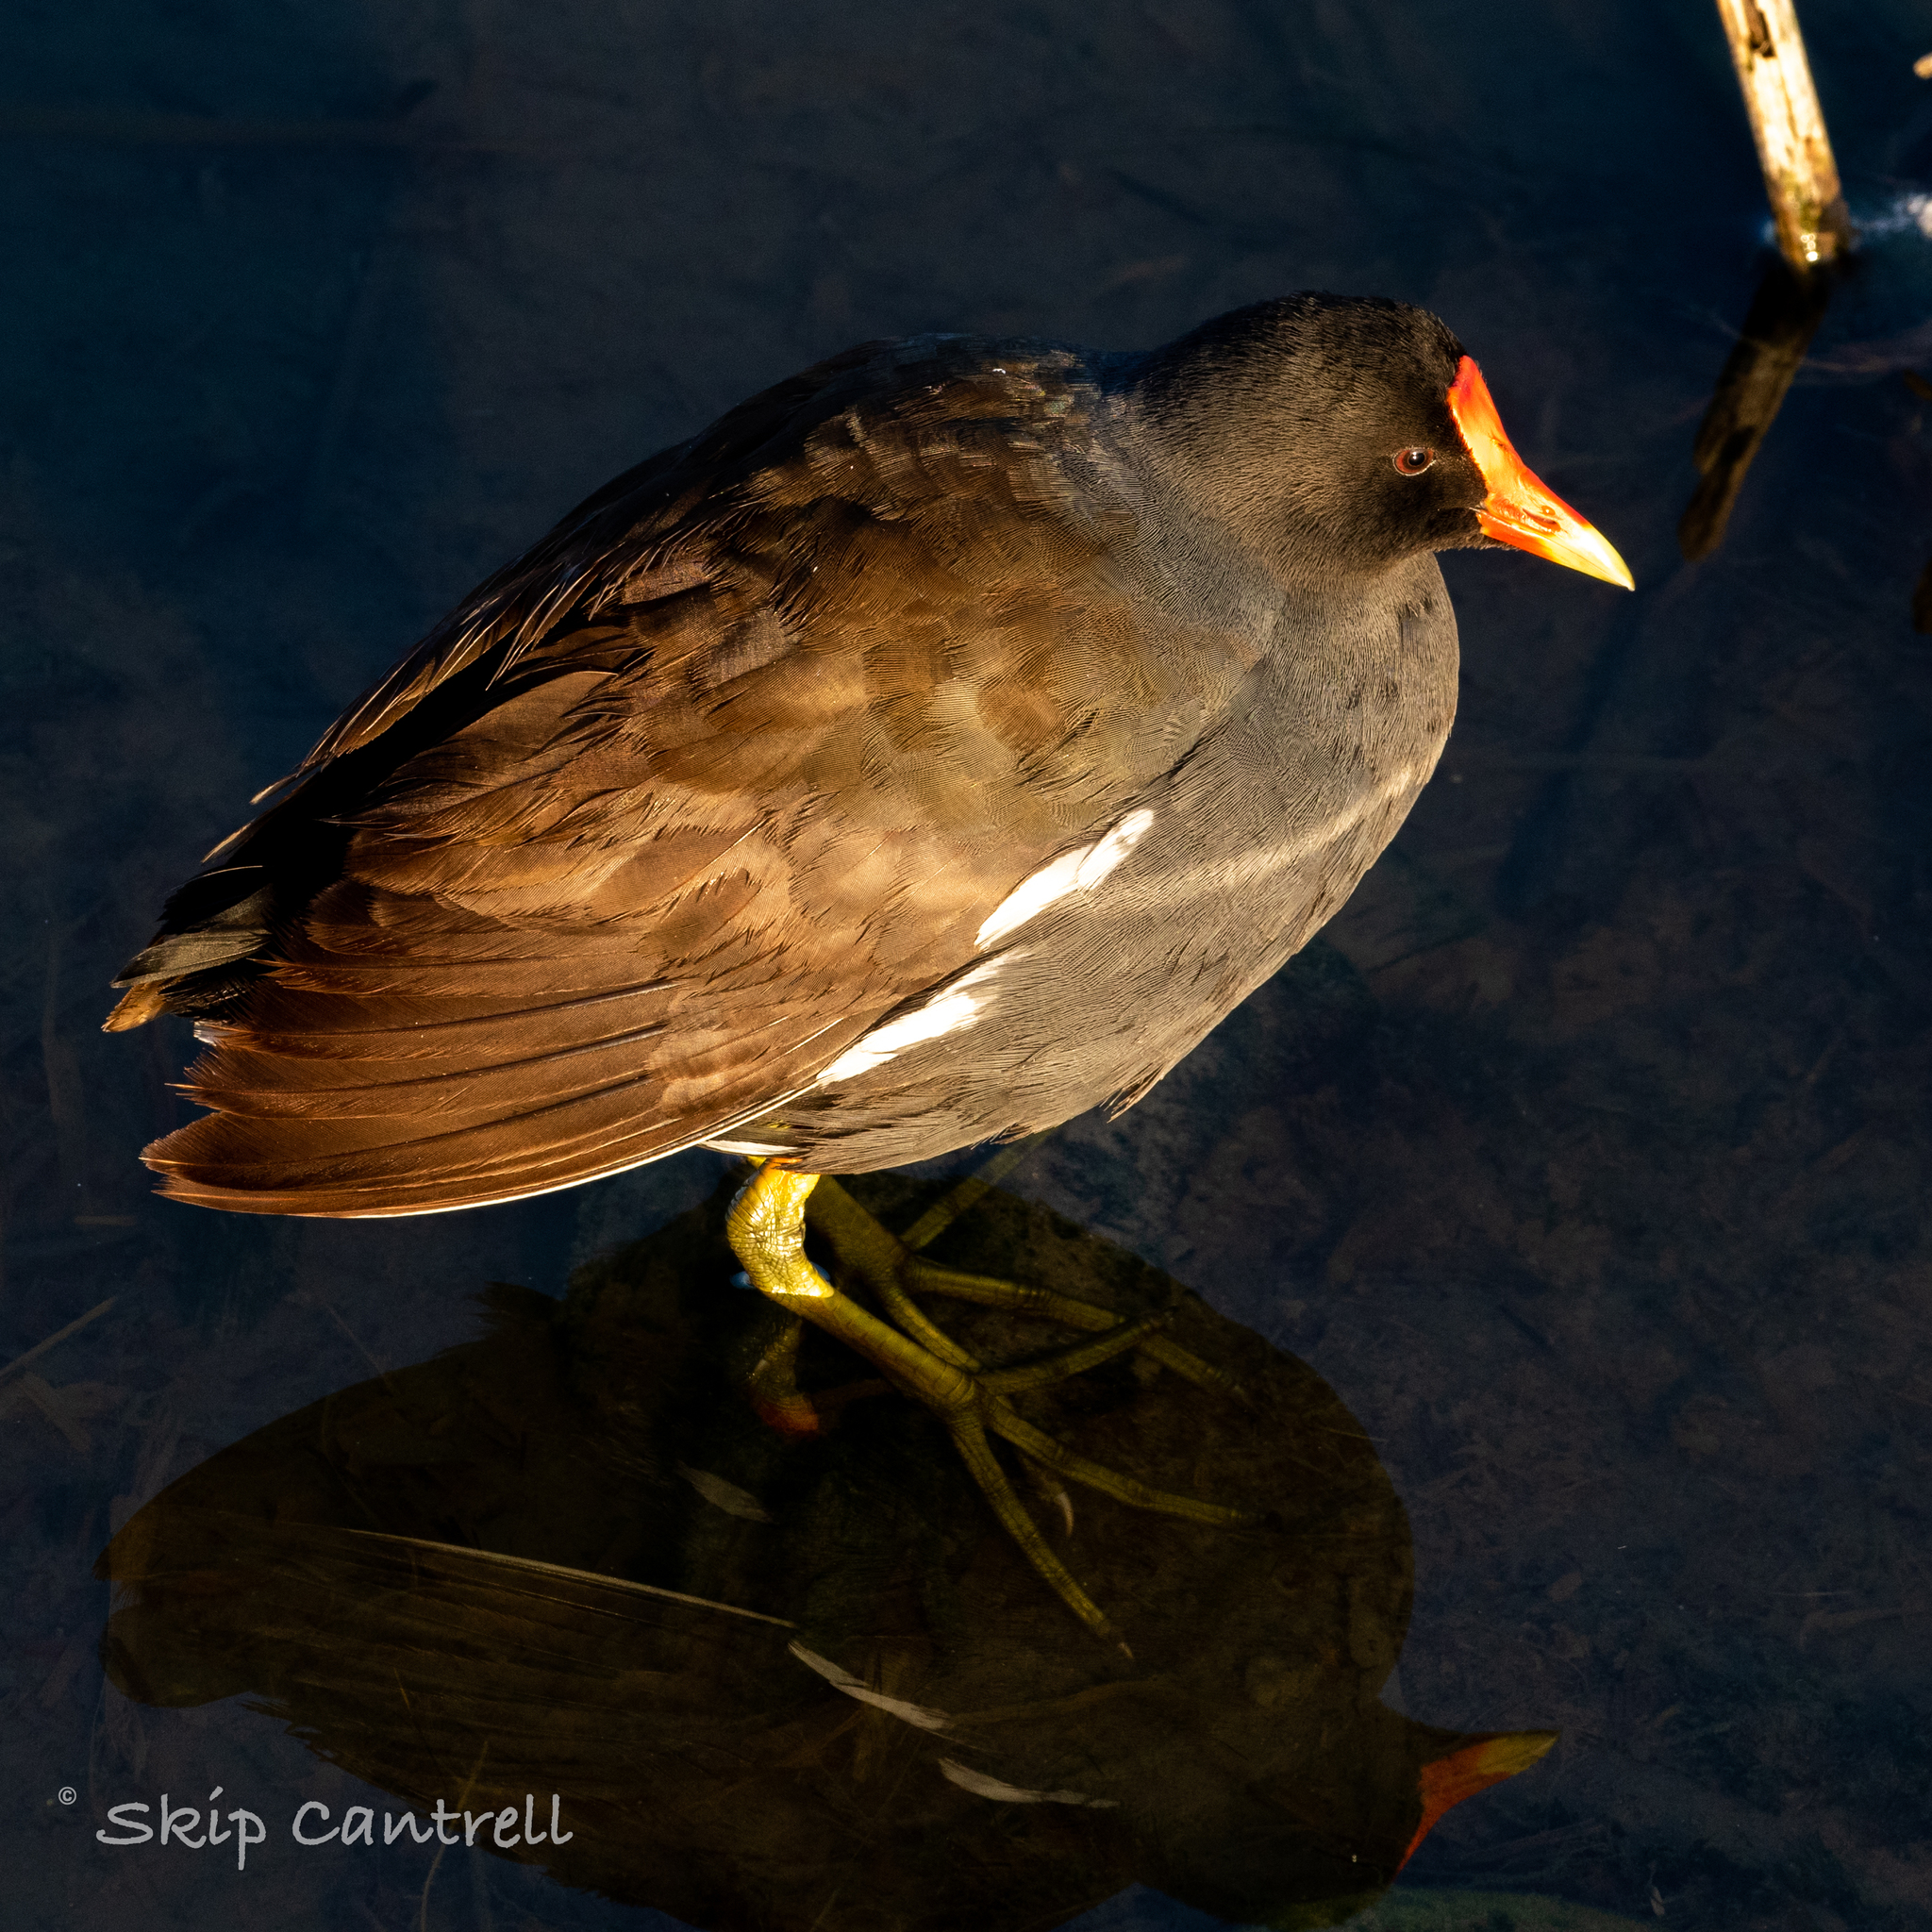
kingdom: Animalia
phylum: Chordata
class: Aves
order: Gruiformes
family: Rallidae
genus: Gallinula
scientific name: Gallinula chloropus
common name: Common moorhen
